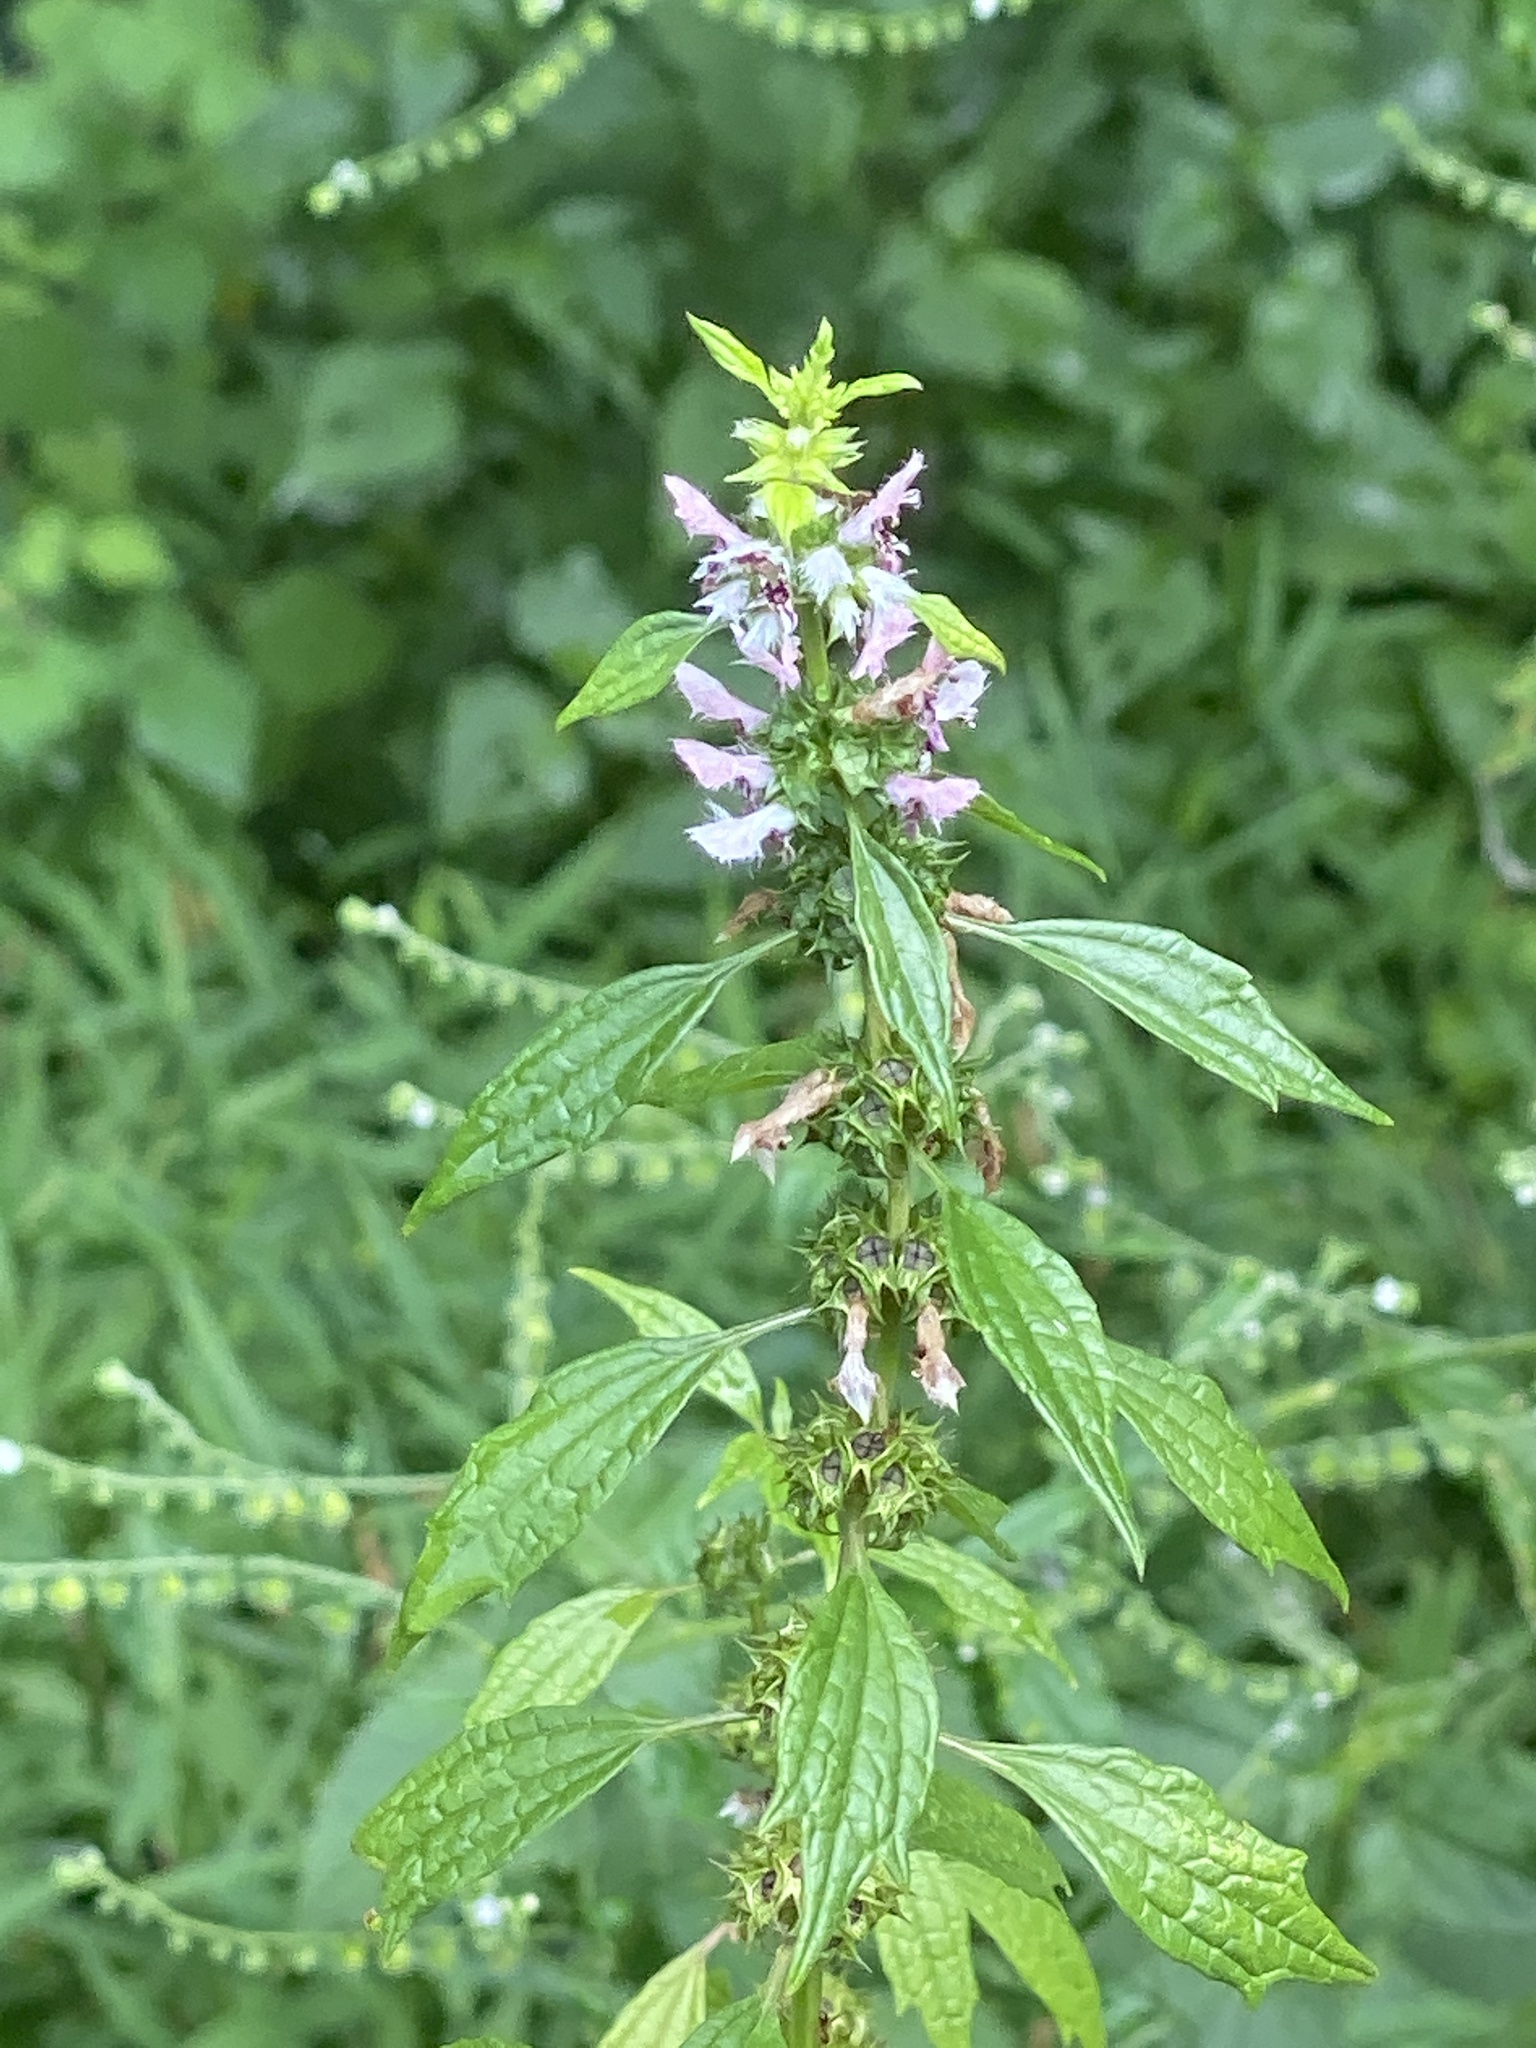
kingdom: Plantae
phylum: Tracheophyta
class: Magnoliopsida
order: Lamiales
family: Lamiaceae
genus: Leonurus
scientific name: Leonurus cardiaca
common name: Motherwort
